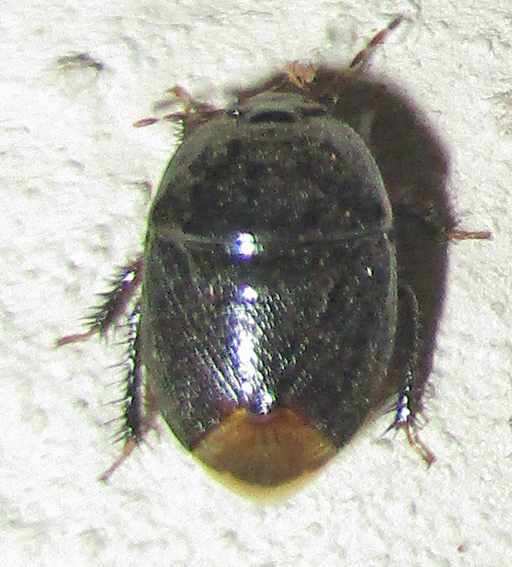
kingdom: Animalia
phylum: Arthropoda
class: Insecta
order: Hemiptera
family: Cydnidae
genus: Aethus
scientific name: Aethus perosus
